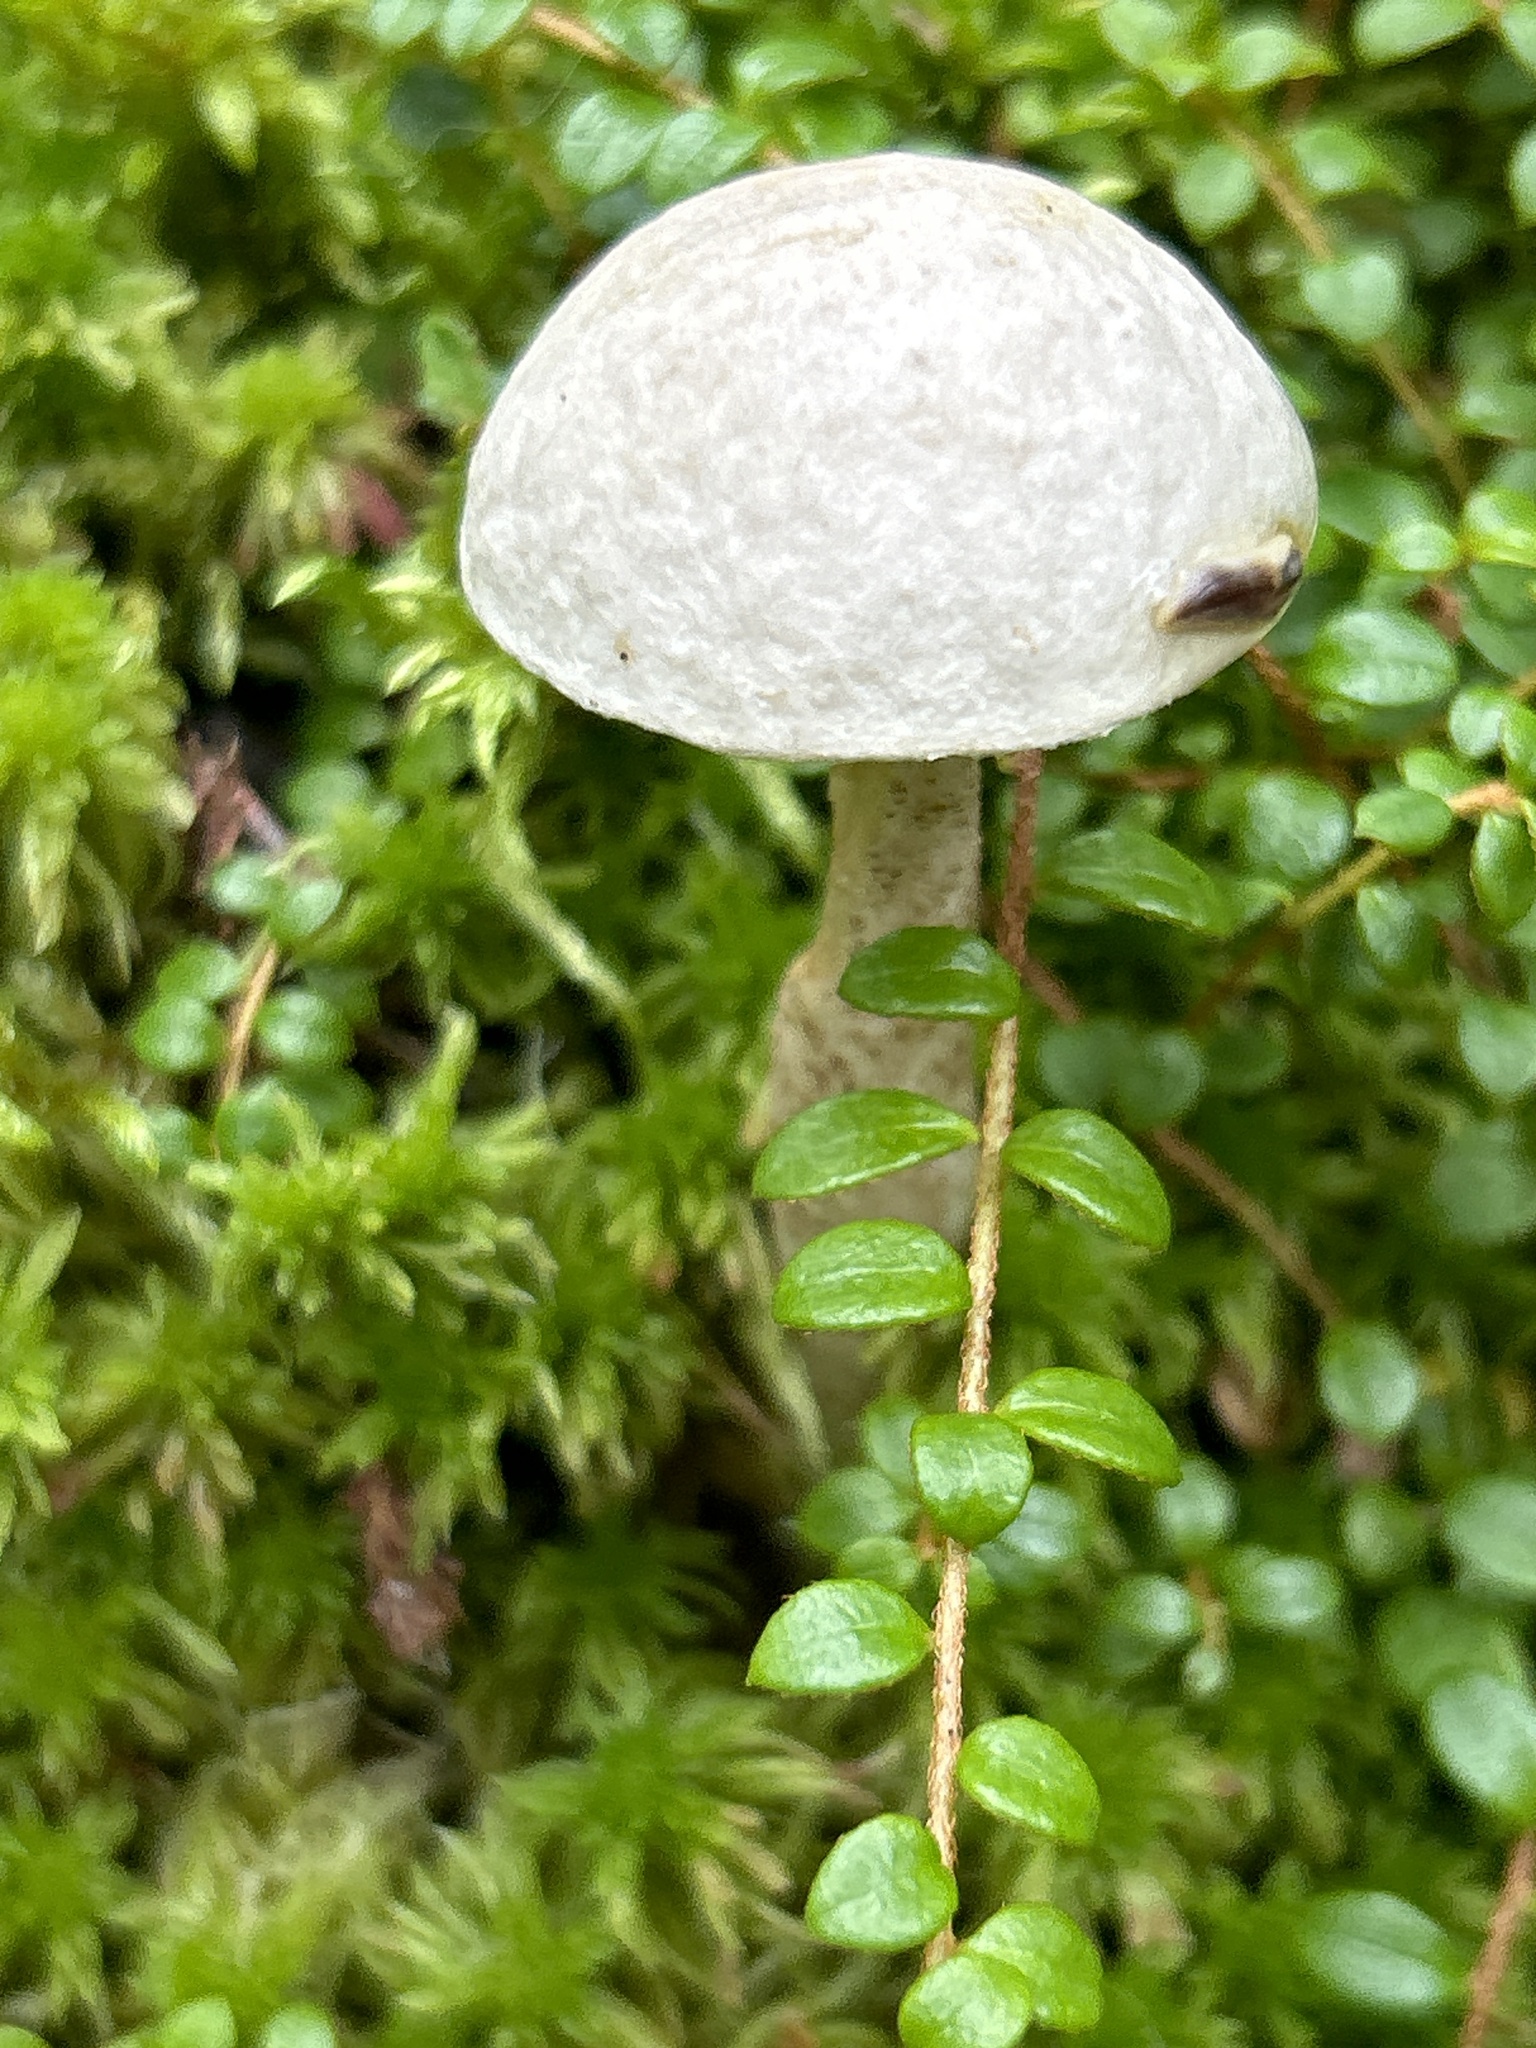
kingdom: Fungi
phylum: Basidiomycota
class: Agaricomycetes
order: Boletales
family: Boletaceae
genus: Leccinum
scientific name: Leccinum holopus
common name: Ghost bolete
